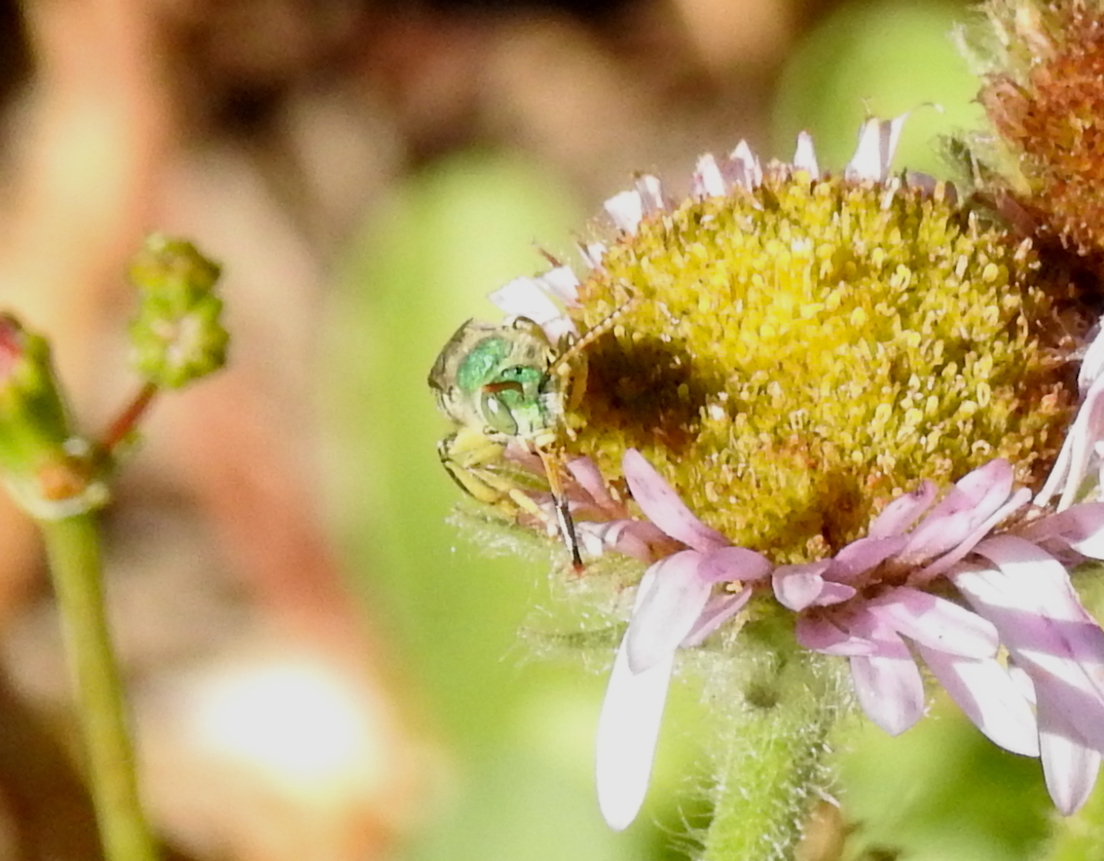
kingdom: Animalia
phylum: Arthropoda
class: Insecta
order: Hymenoptera
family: Halictidae
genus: Agapostemon
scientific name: Agapostemon texanus
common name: Texas striped sweat bee
